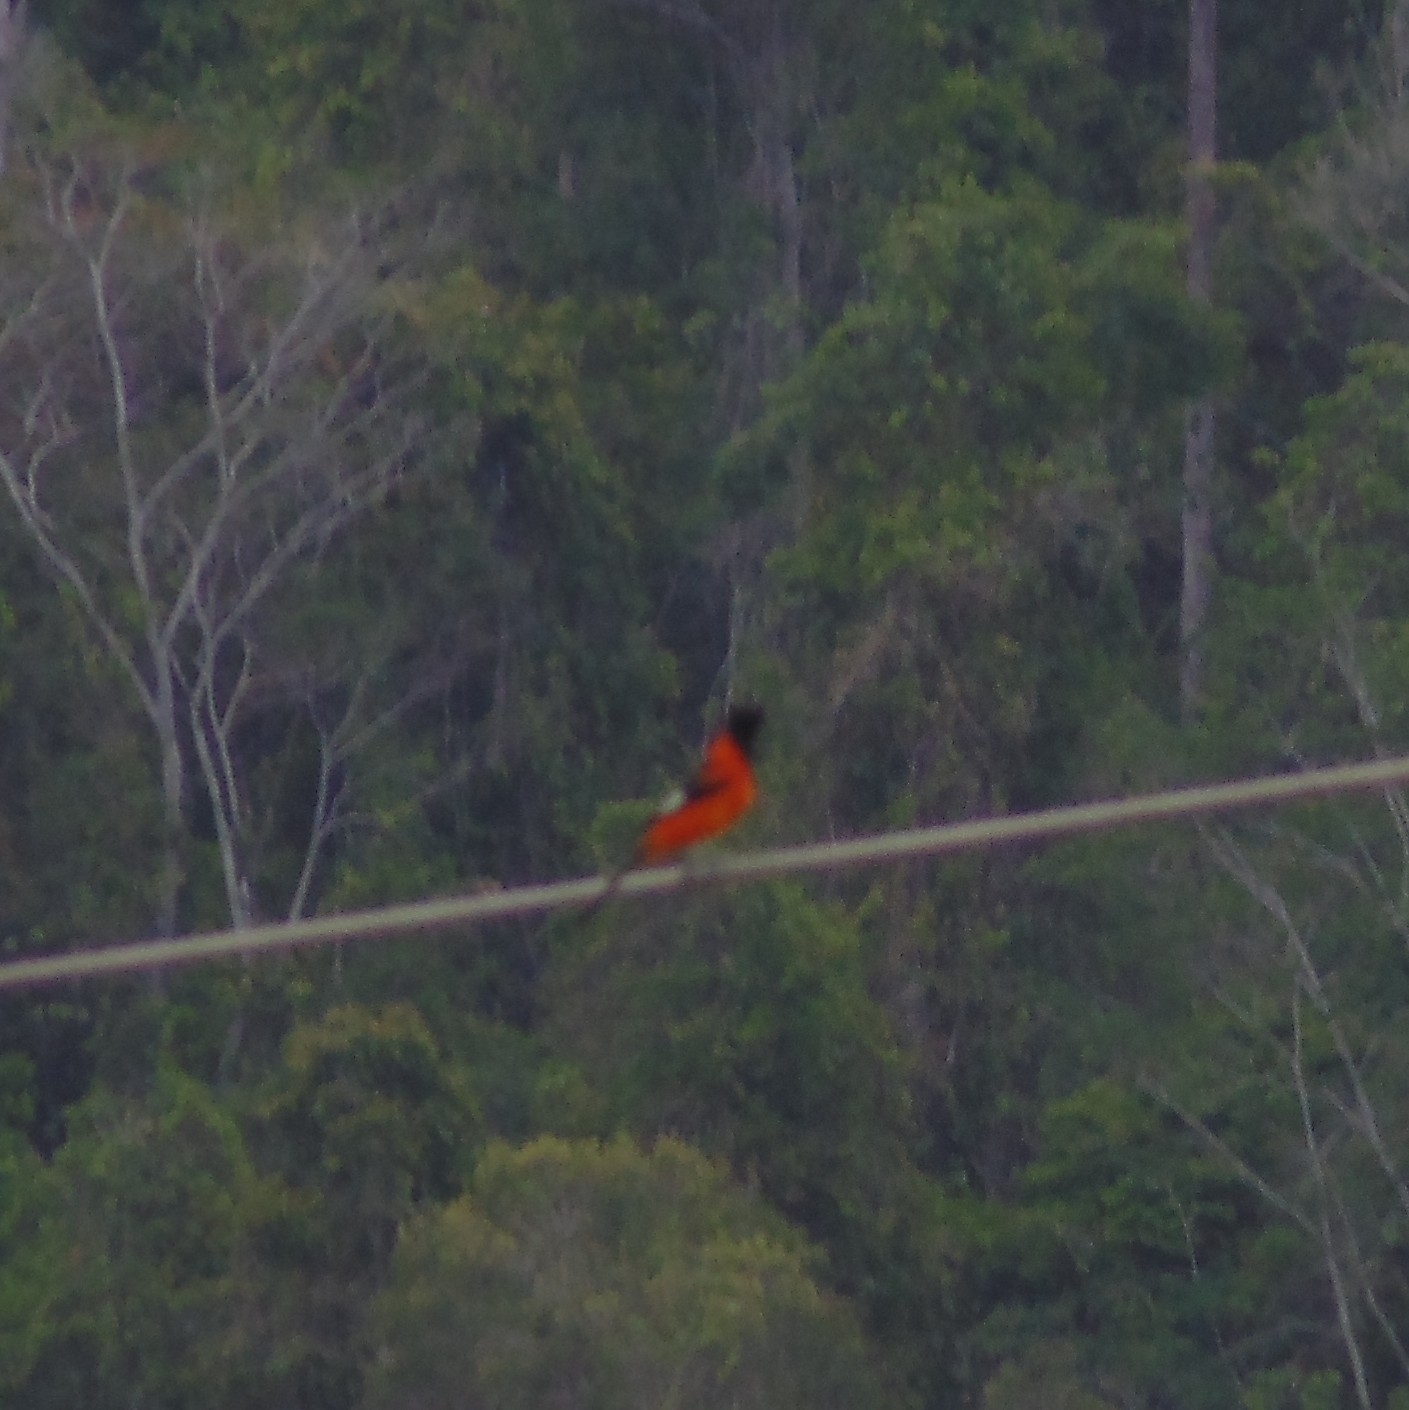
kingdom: Animalia
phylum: Chordata
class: Aves
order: Passeriformes
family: Icteridae
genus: Icterus
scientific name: Icterus icterus
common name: Venezuelan troupial
